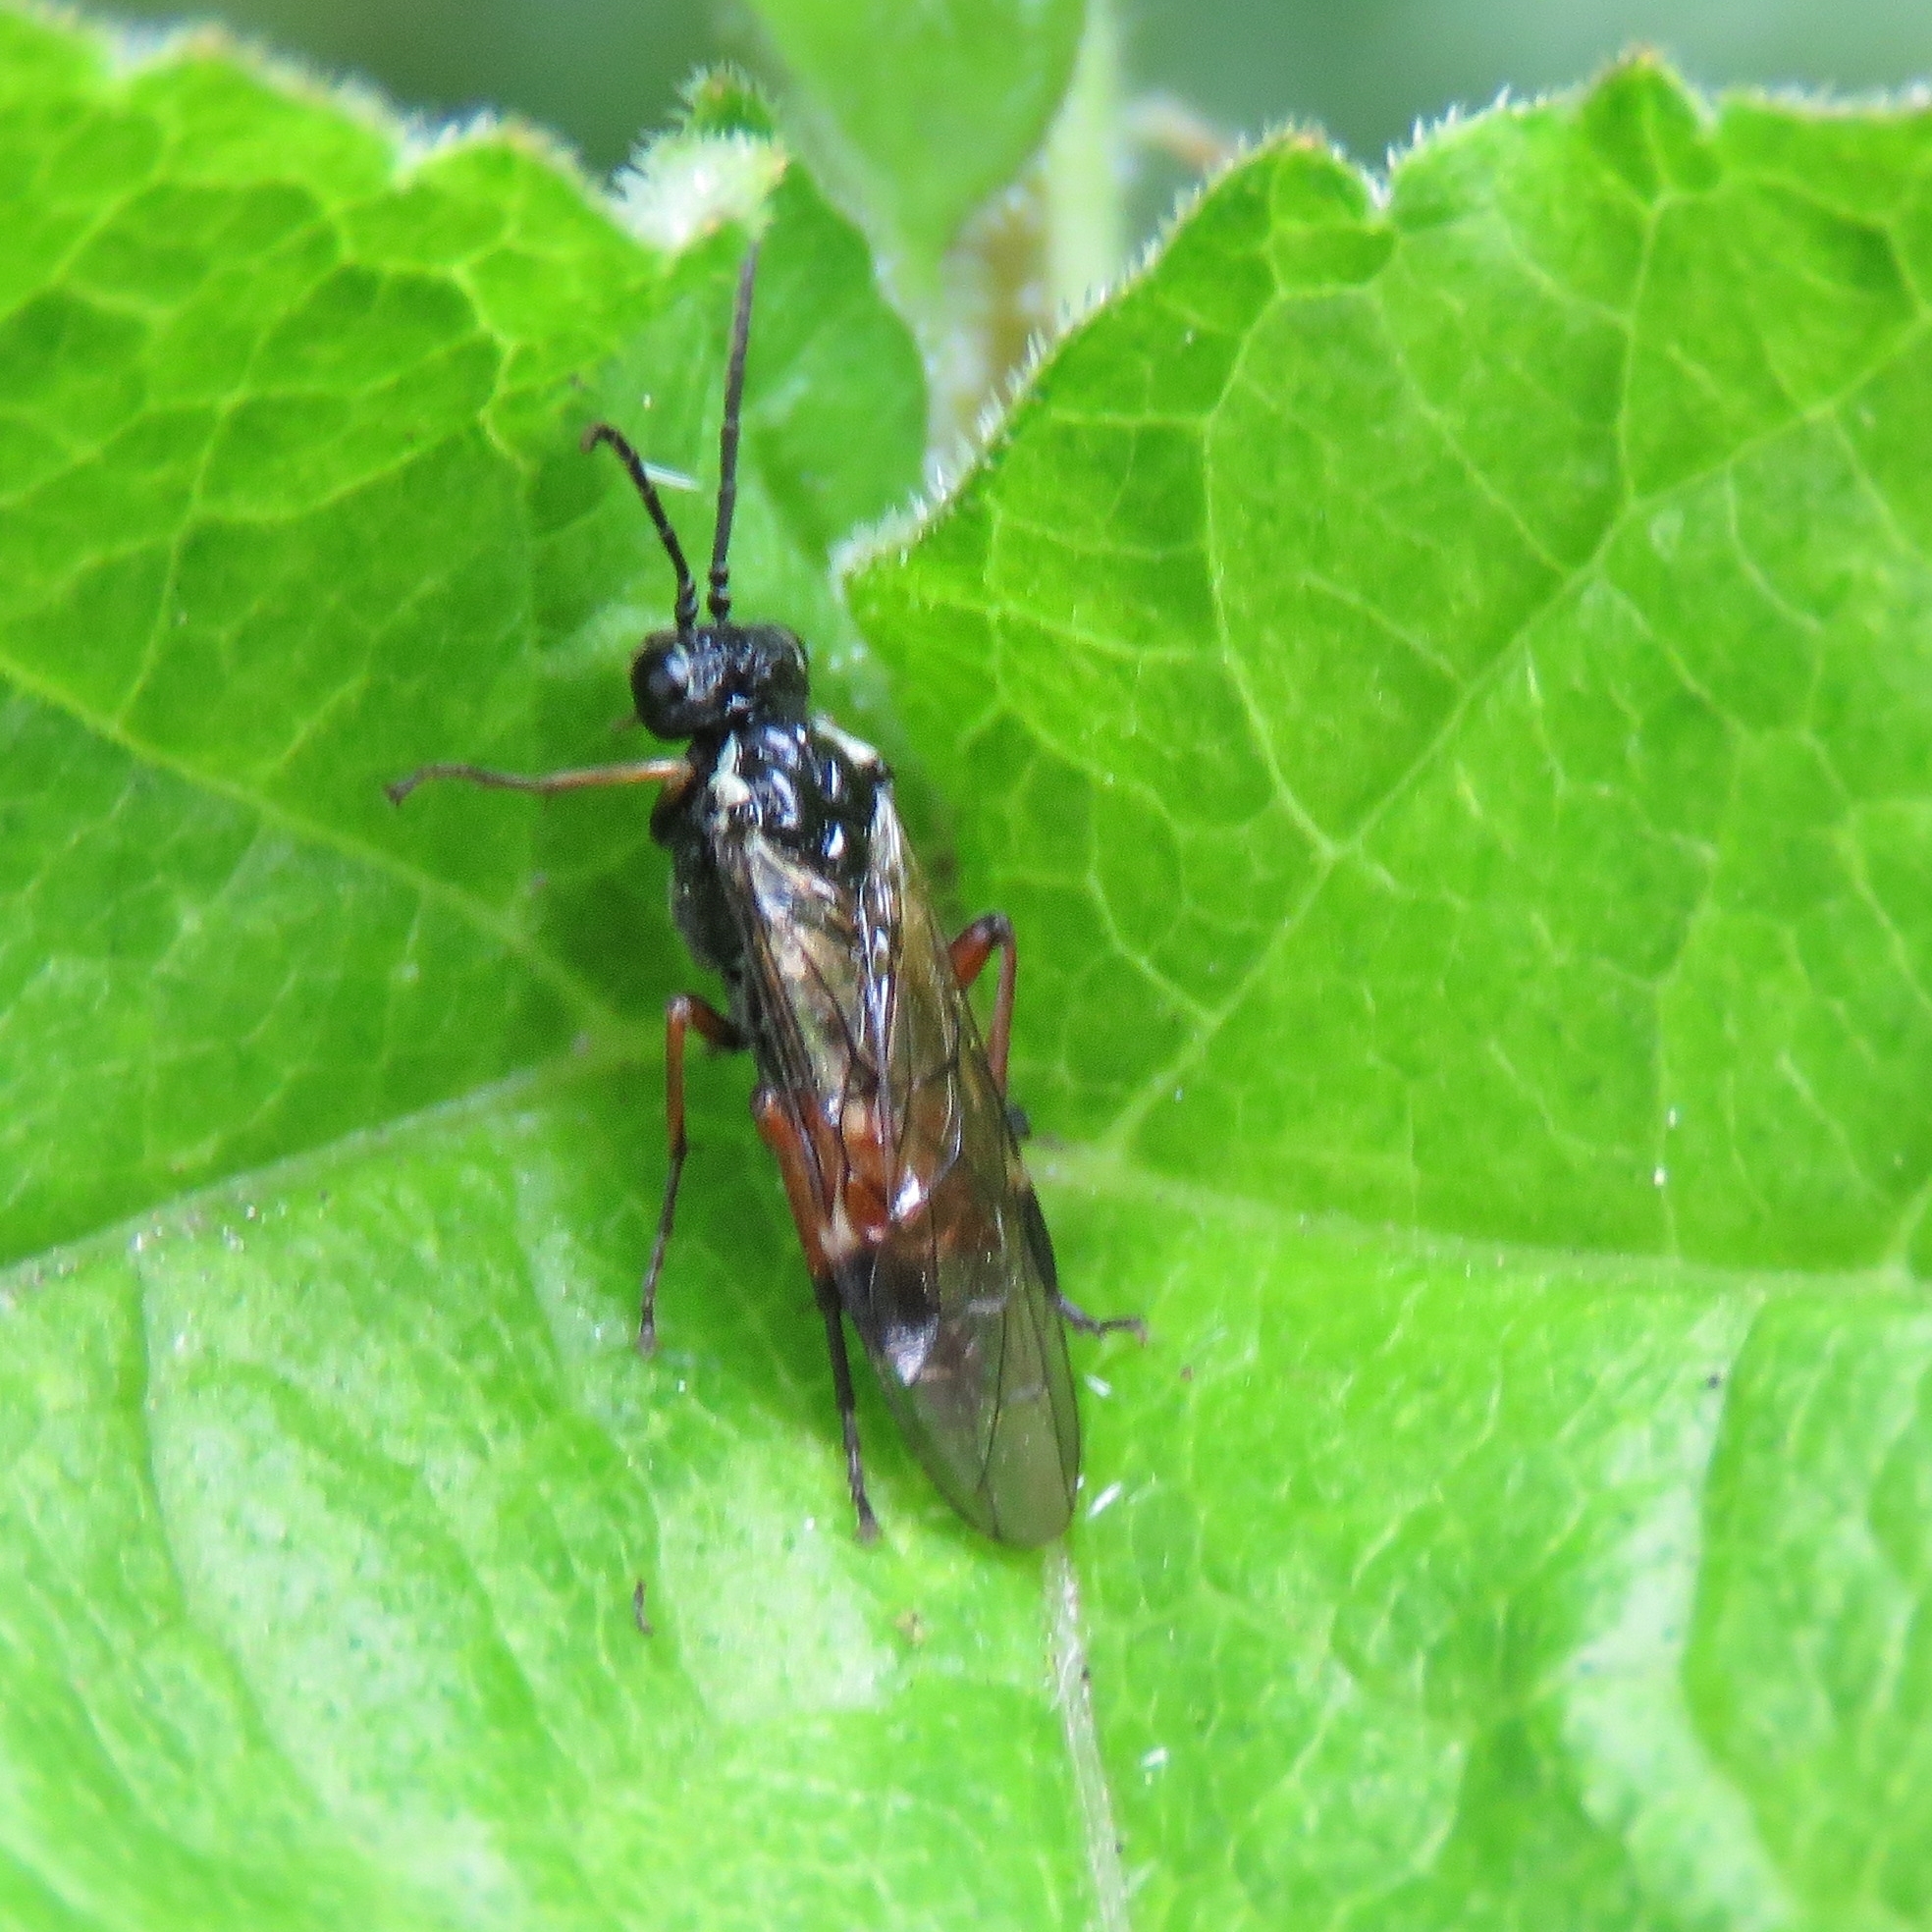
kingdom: Animalia
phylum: Arthropoda
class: Insecta
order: Hymenoptera
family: Tenthredinidae
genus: Aglaostigma
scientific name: Aglaostigma aucupariae
